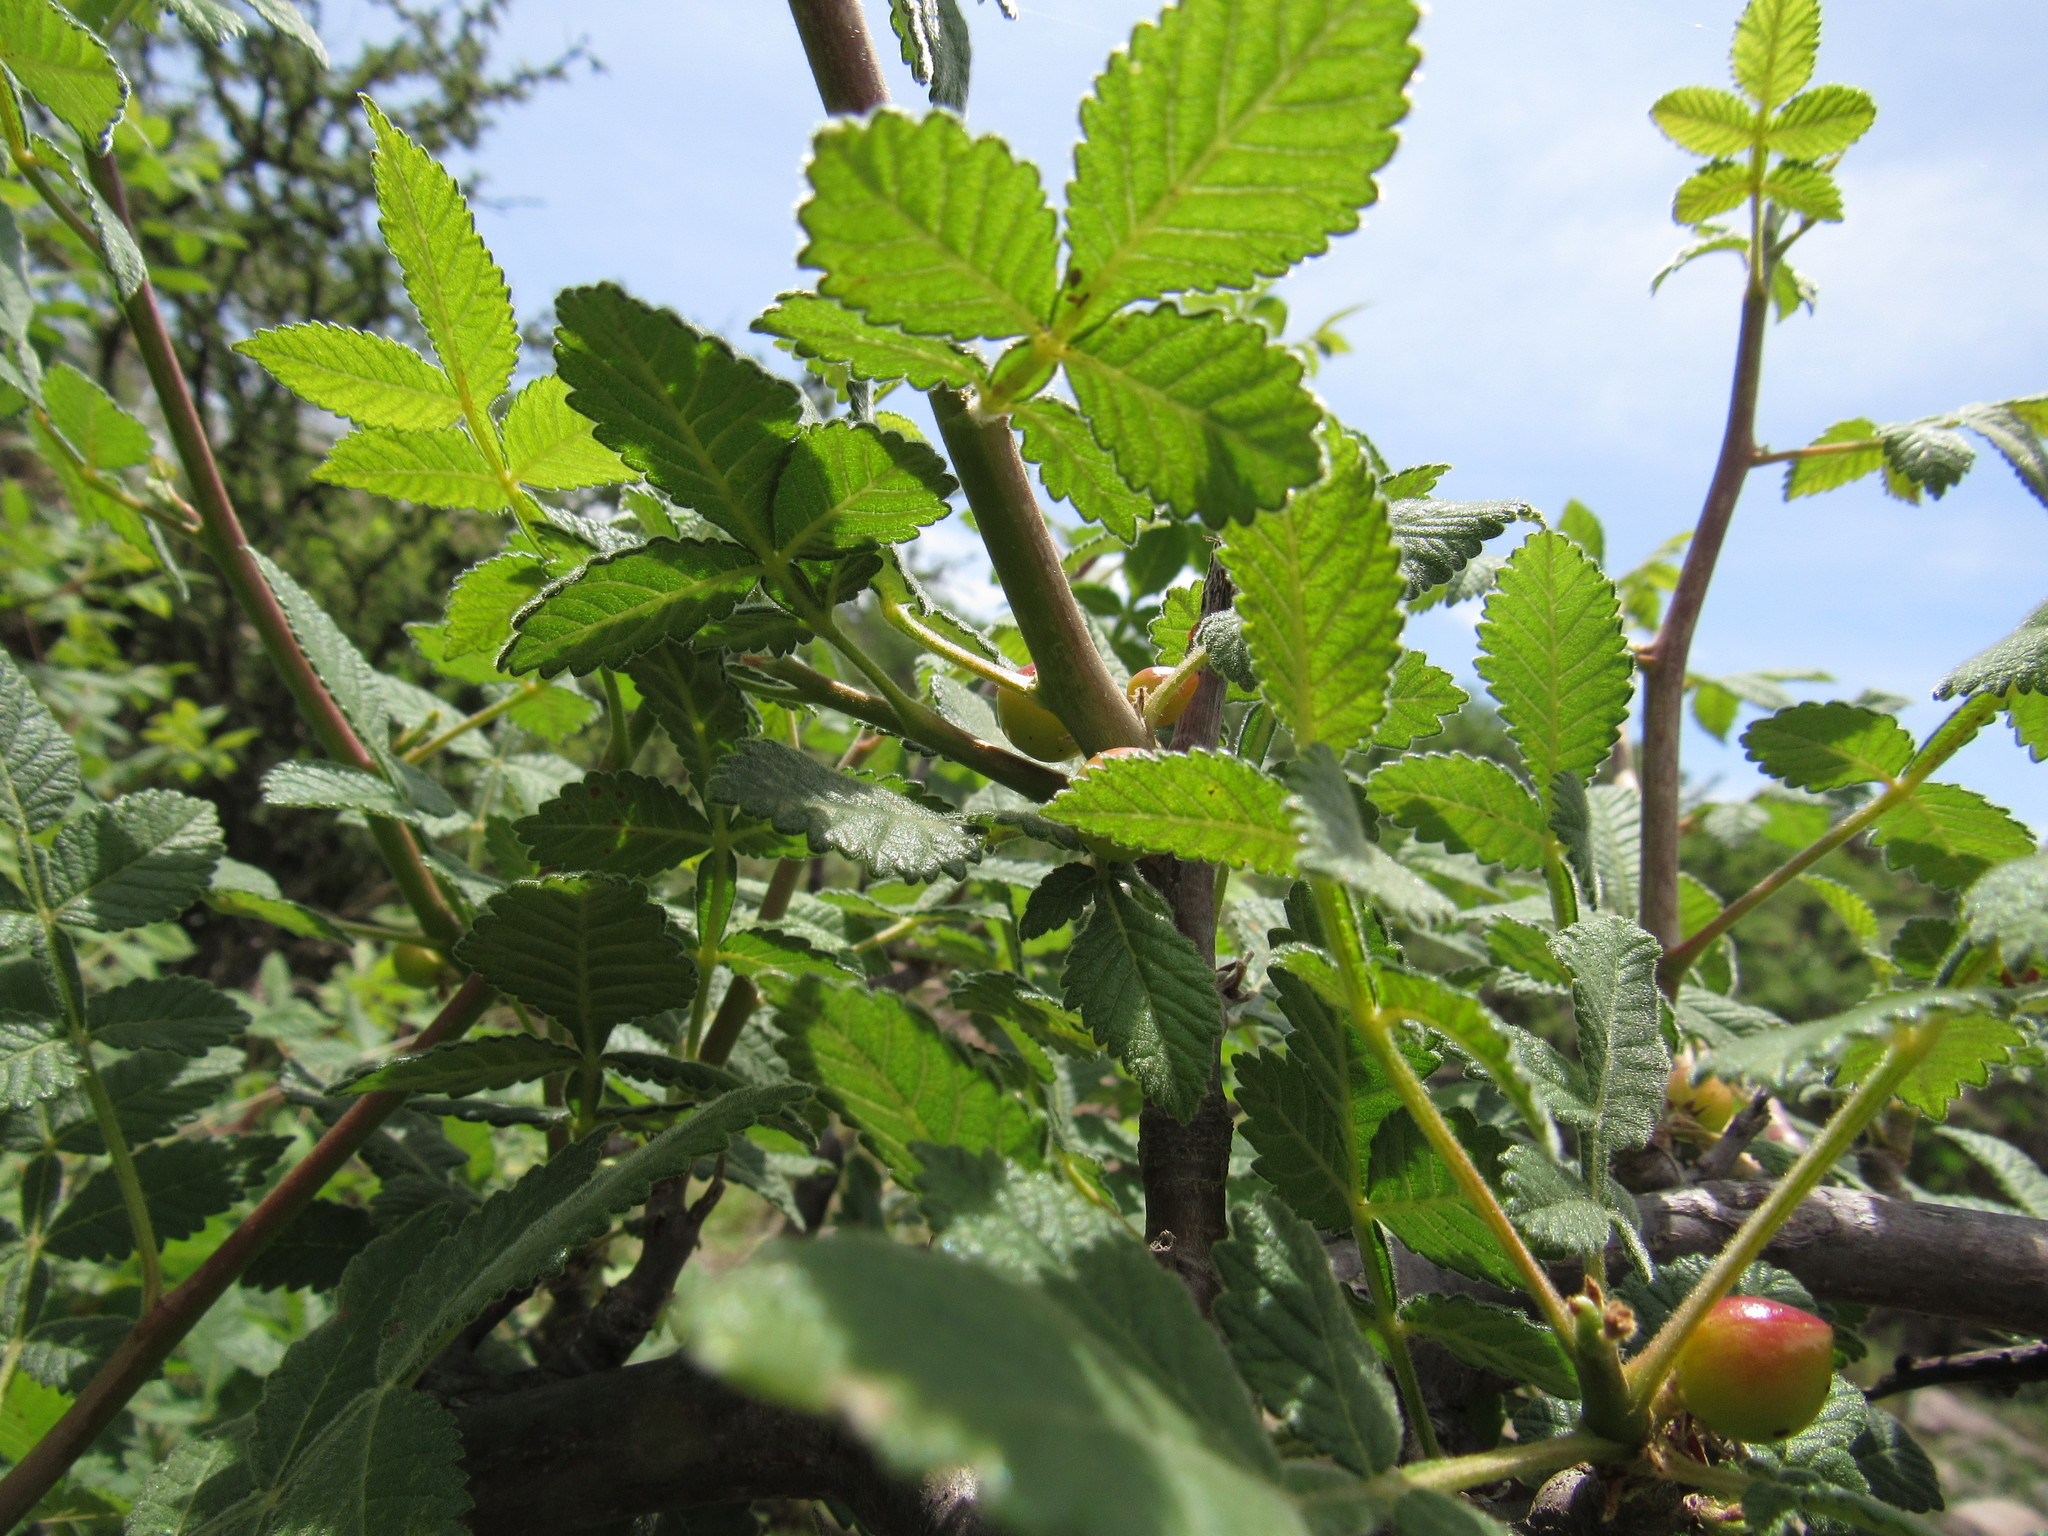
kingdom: Plantae
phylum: Tracheophyta
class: Magnoliopsida
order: Sapindales
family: Burseraceae
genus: Bursera
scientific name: Bursera excelsa
